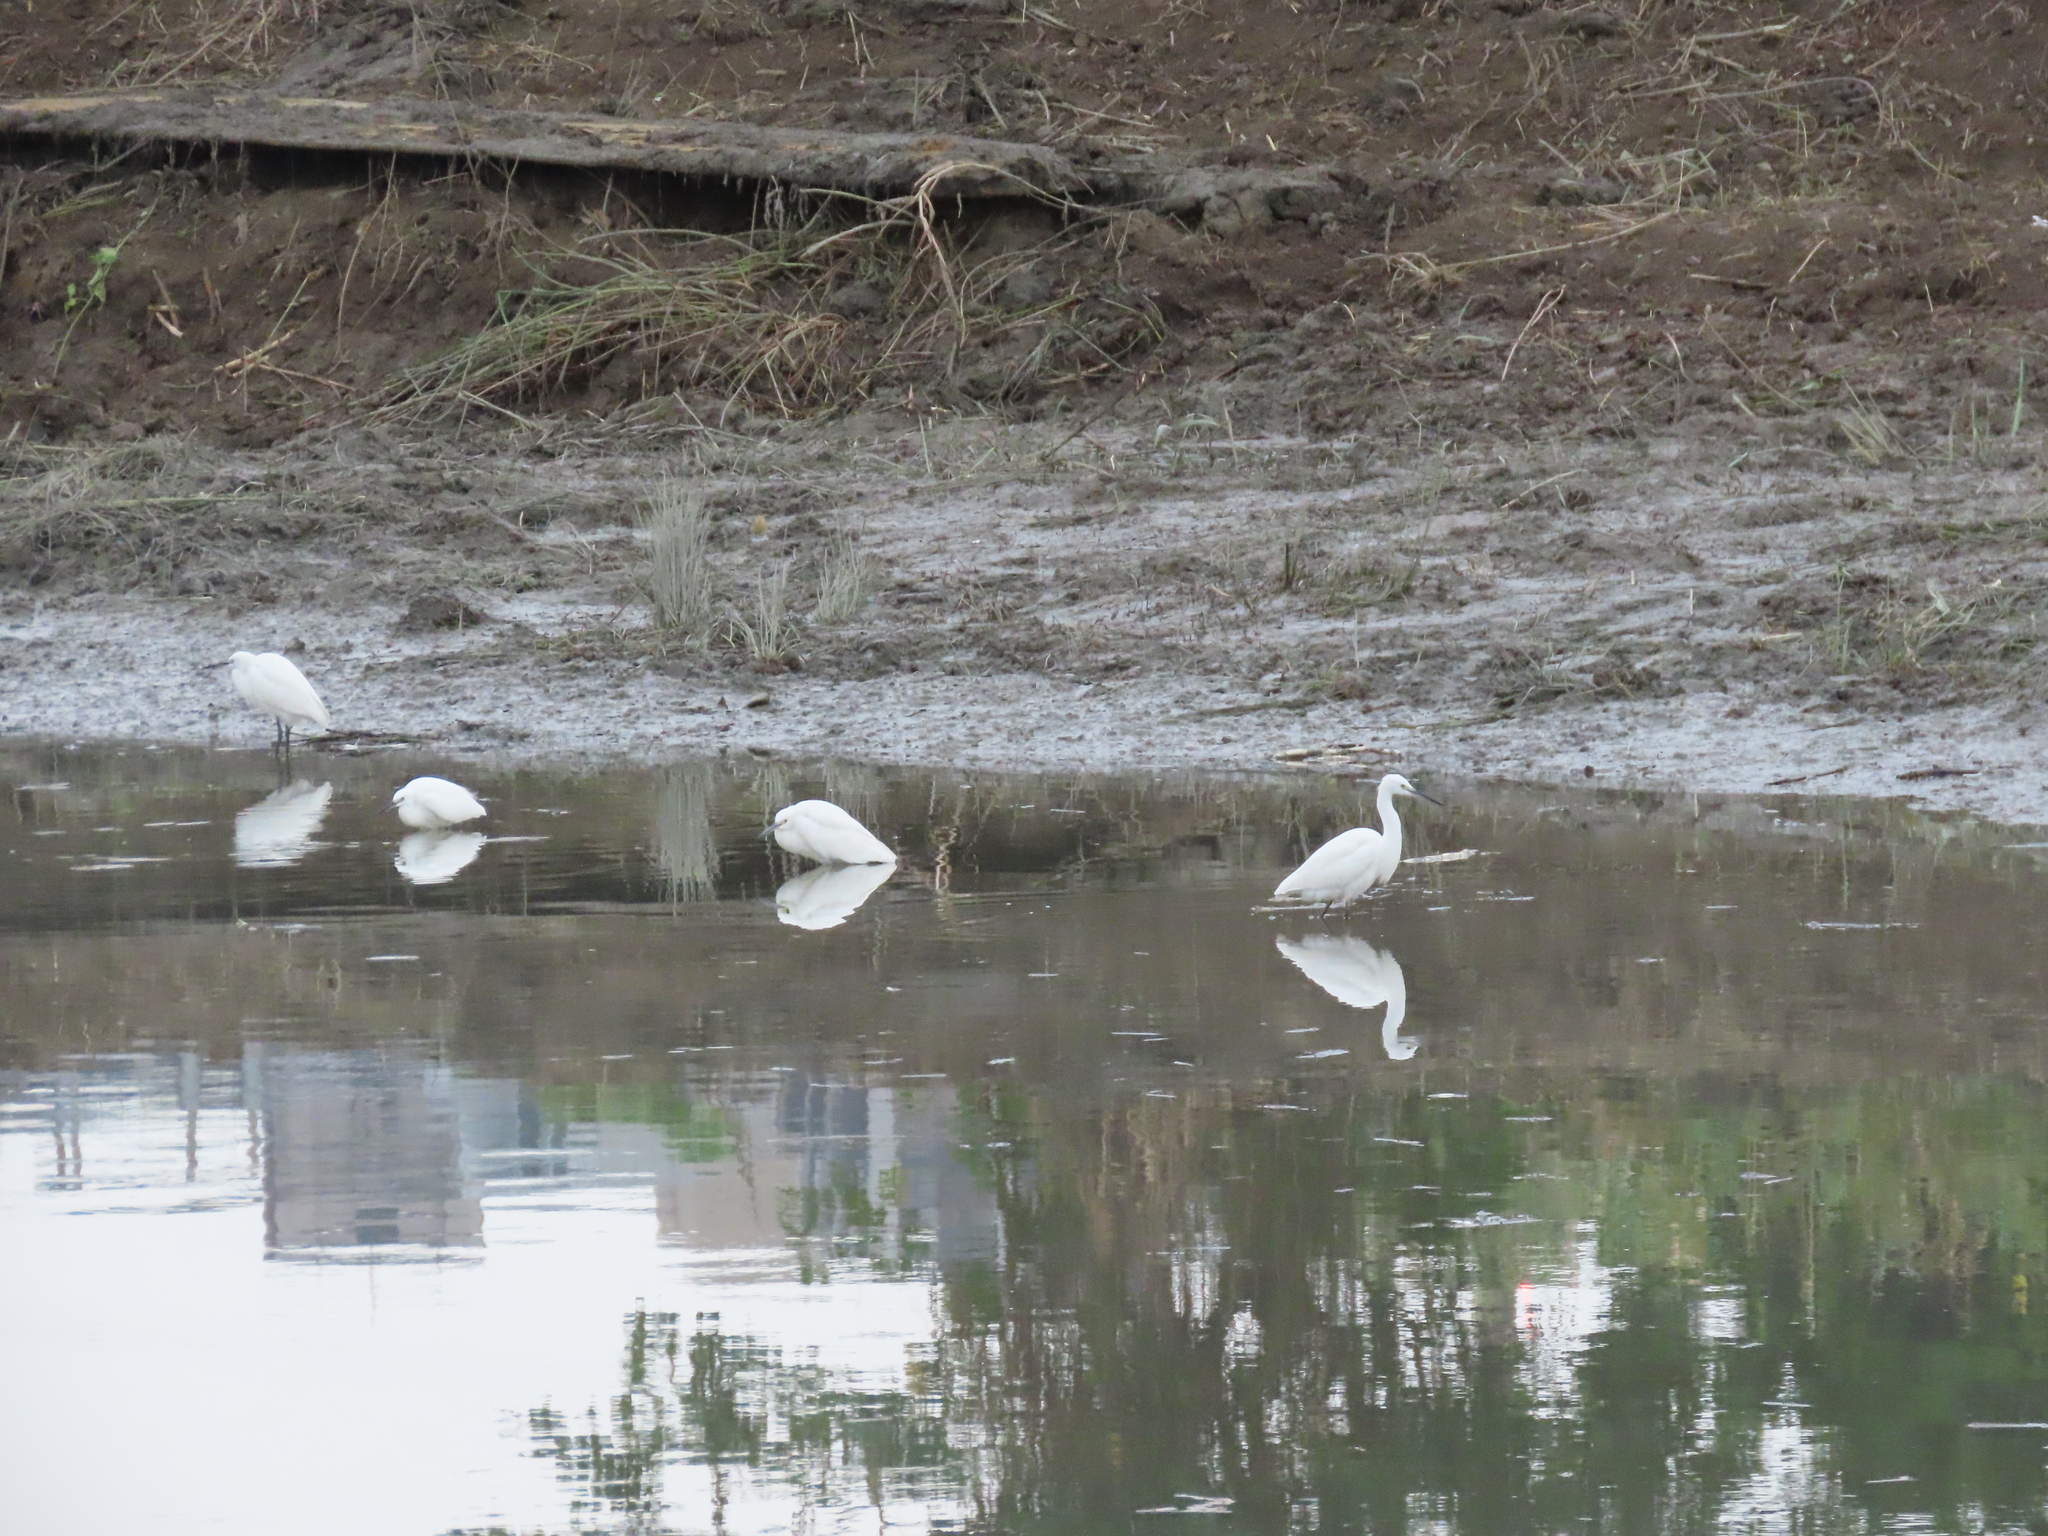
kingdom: Animalia
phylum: Chordata
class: Aves
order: Pelecaniformes
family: Ardeidae
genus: Egretta
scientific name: Egretta garzetta
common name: Little egret
